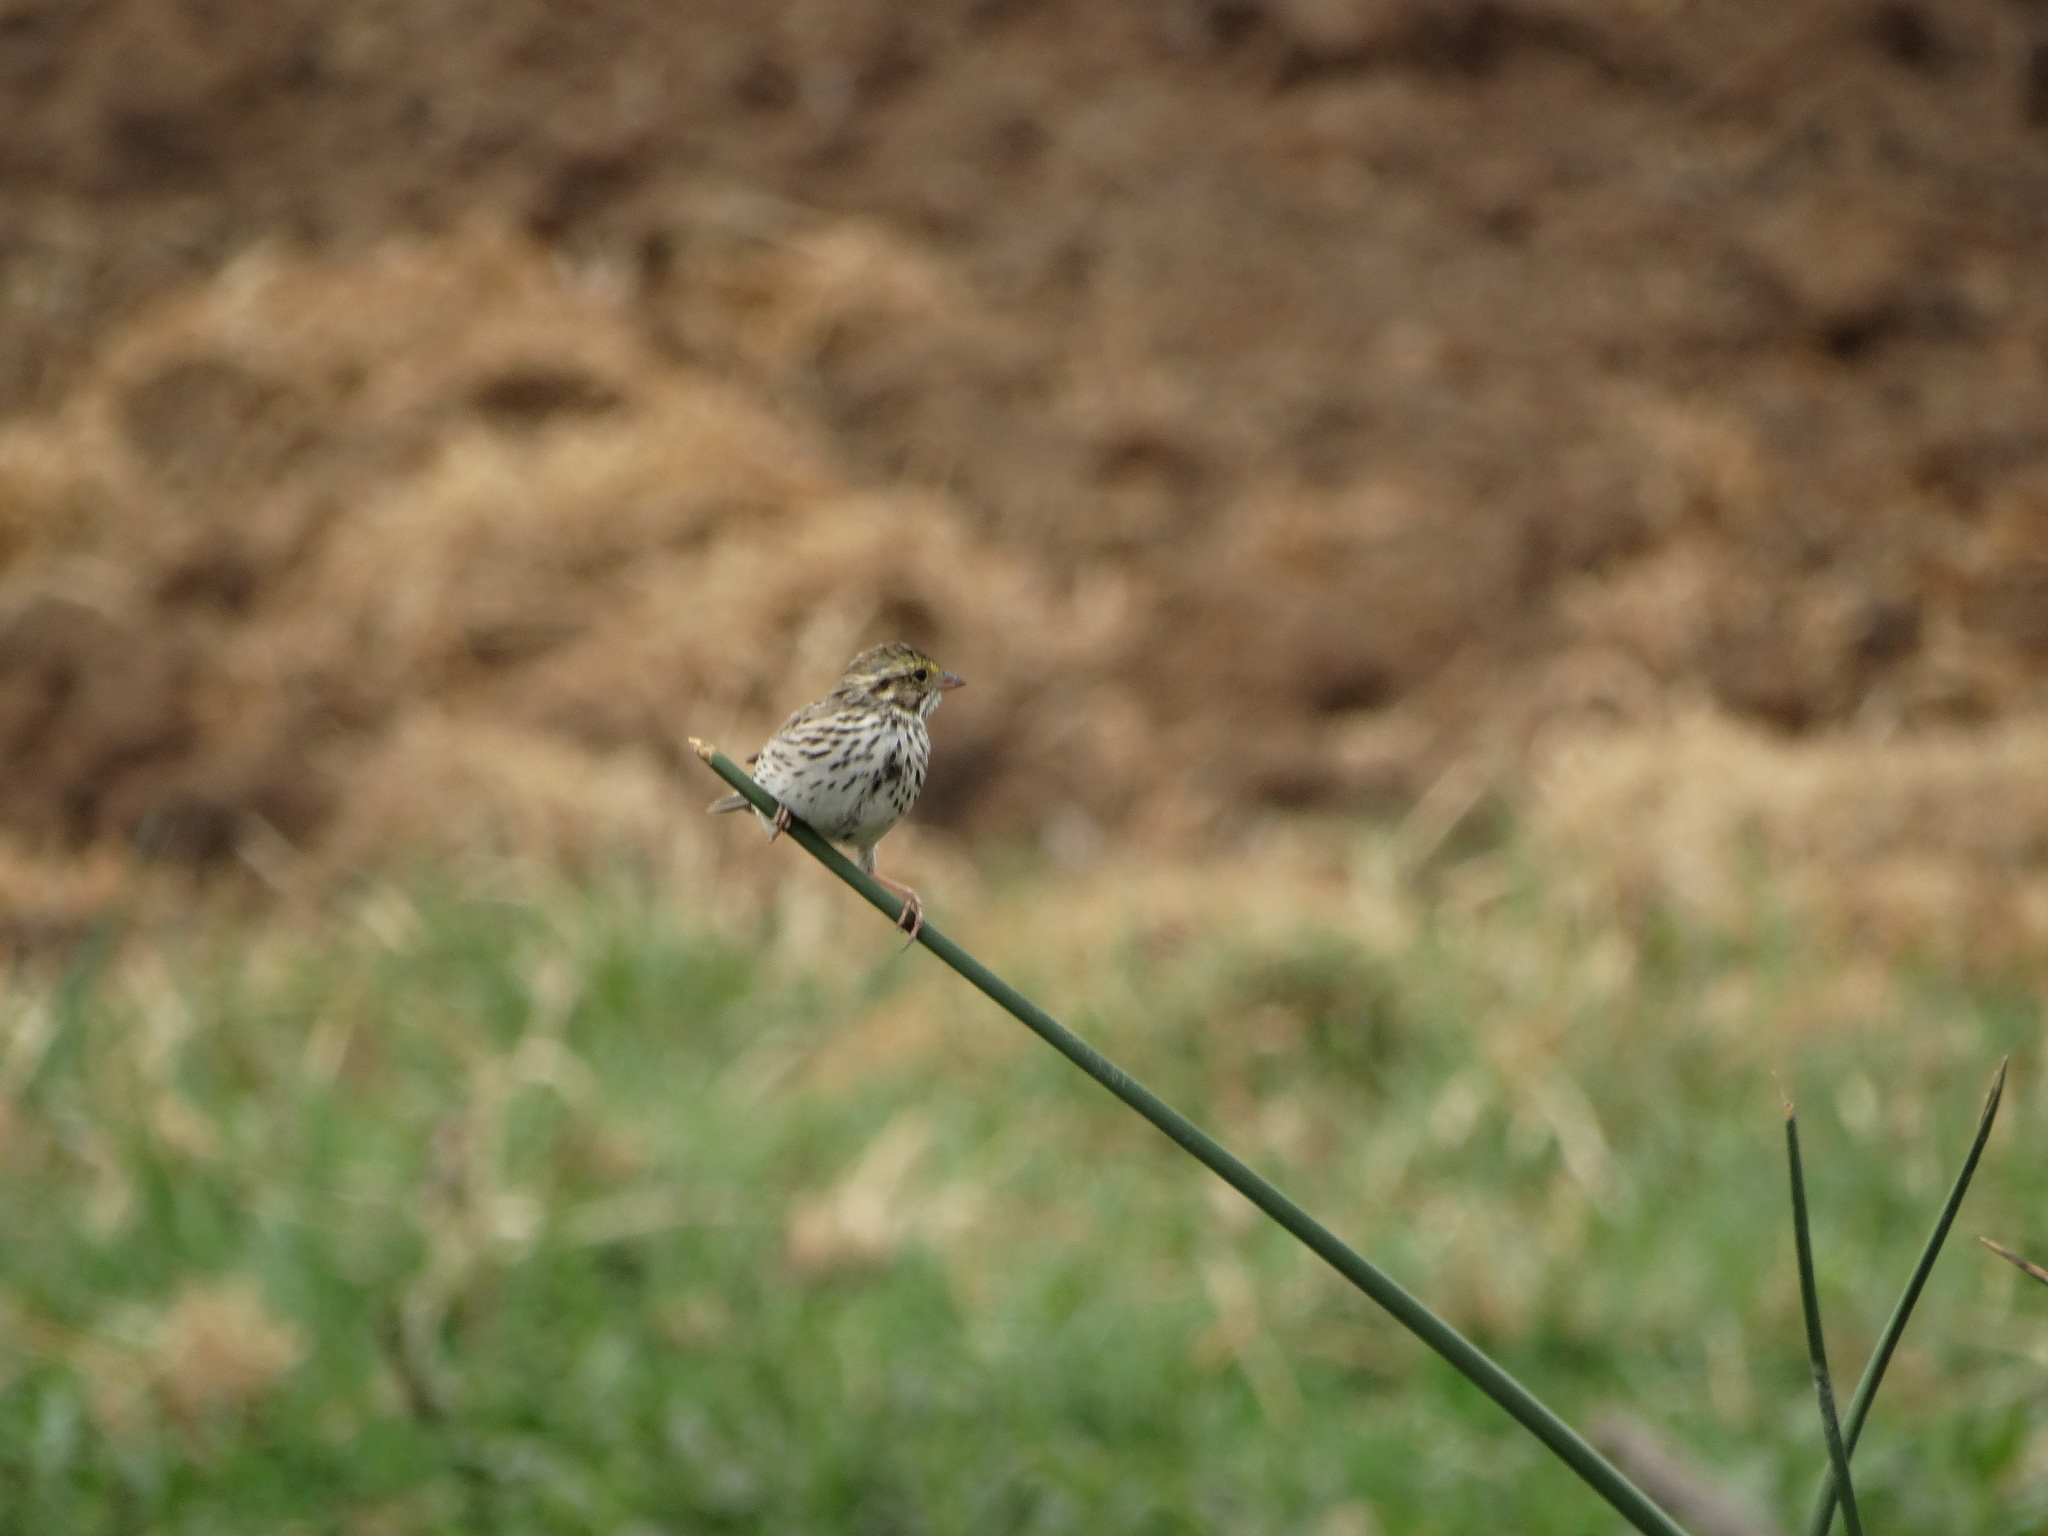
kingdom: Animalia
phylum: Chordata
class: Aves
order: Passeriformes
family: Passerellidae
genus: Passerculus
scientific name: Passerculus sandwichensis
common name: Savannah sparrow
